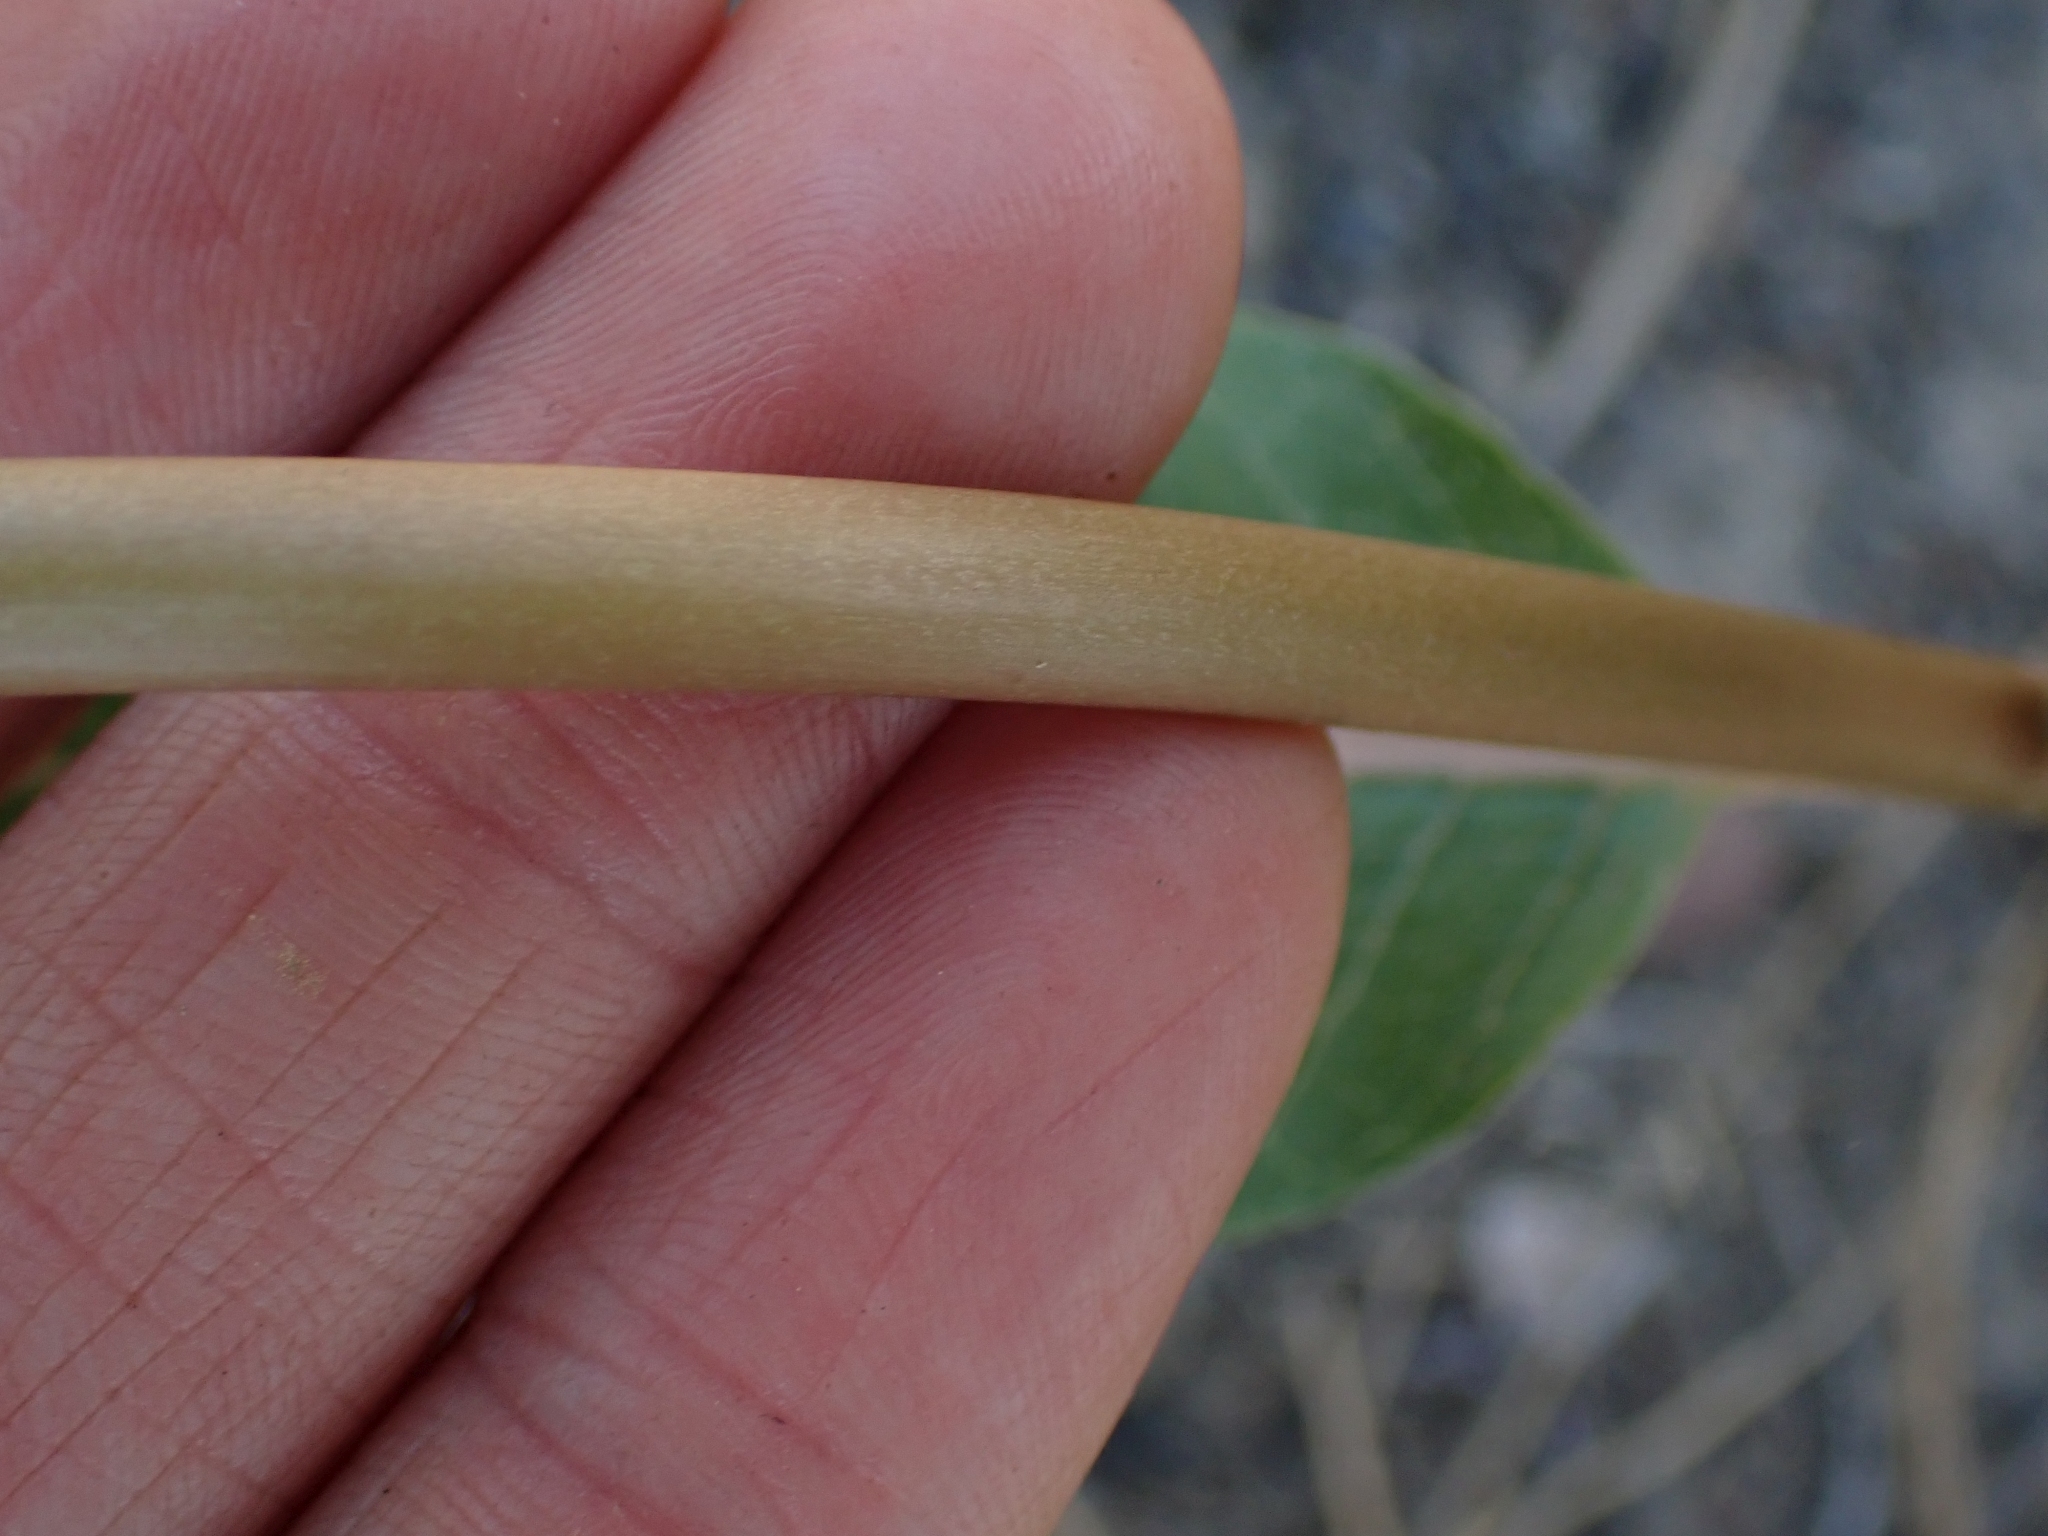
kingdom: Plantae
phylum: Tracheophyta
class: Magnoliopsida
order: Gentianales
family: Apocynaceae
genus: Asclepias
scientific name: Asclepias speciosa
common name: Showy milkweed
